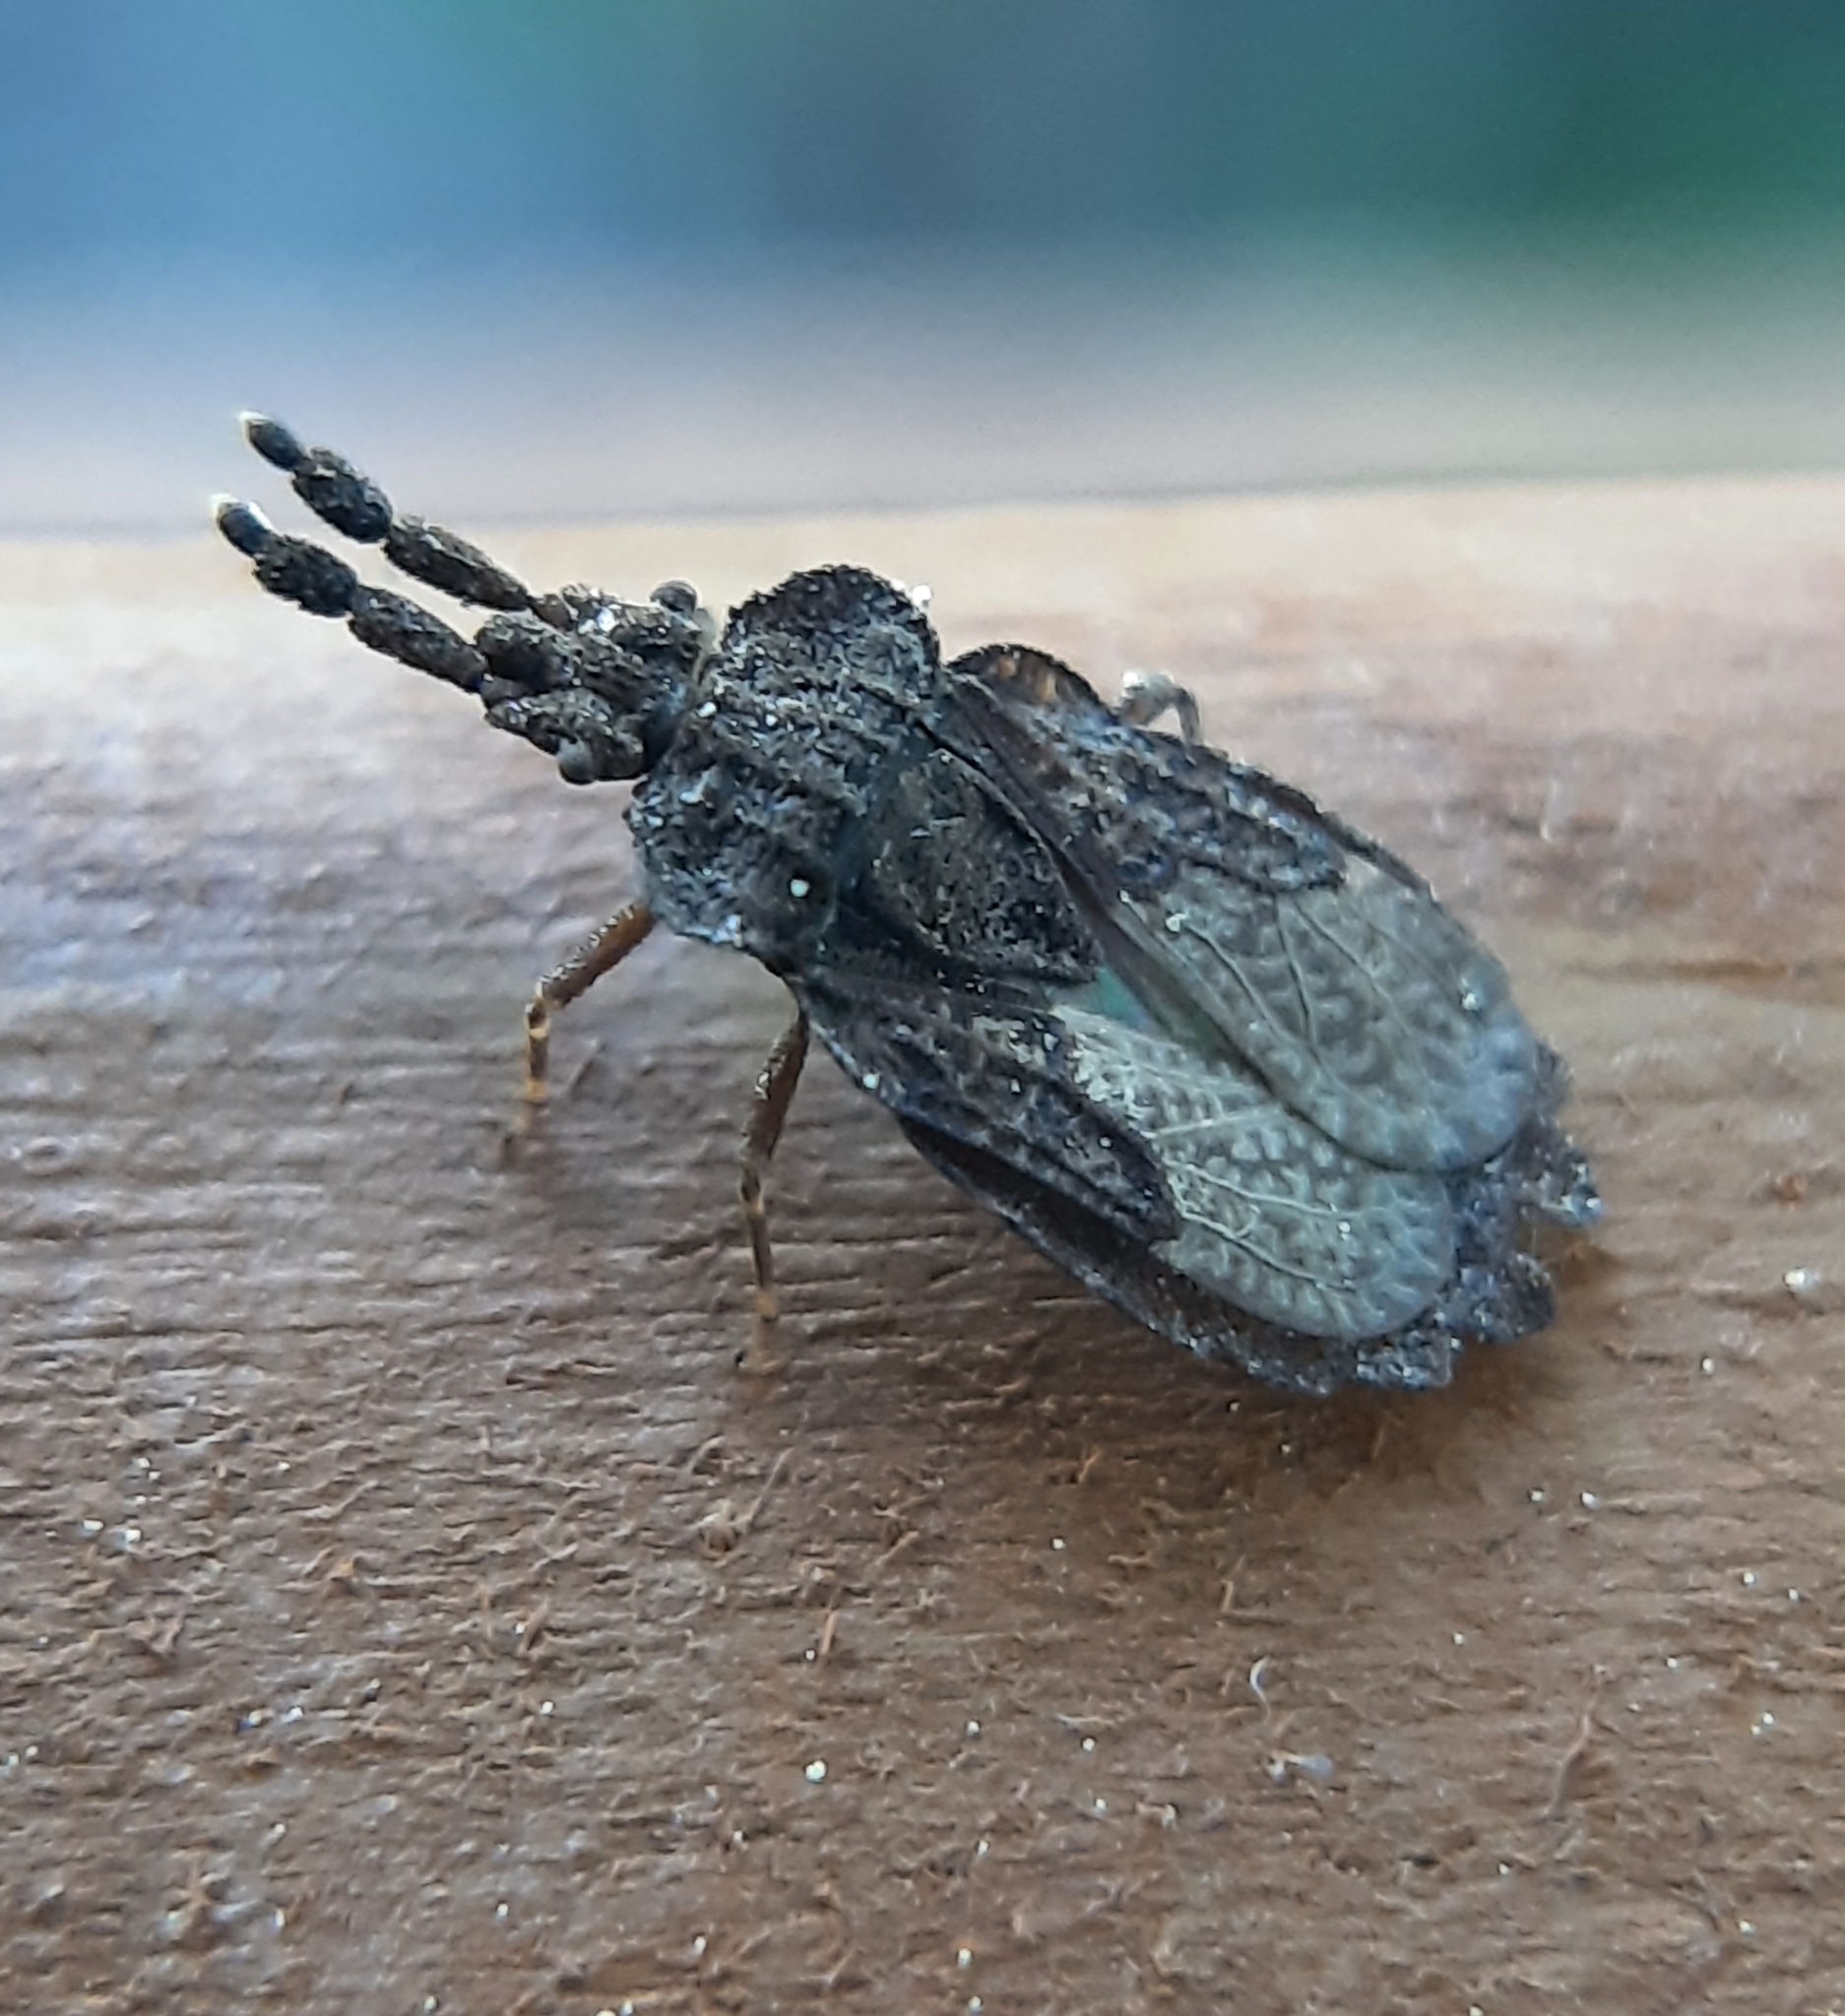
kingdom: Animalia
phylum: Arthropoda
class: Insecta
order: Hemiptera
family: Aradidae
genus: Aradus
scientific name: Aradus robustus
